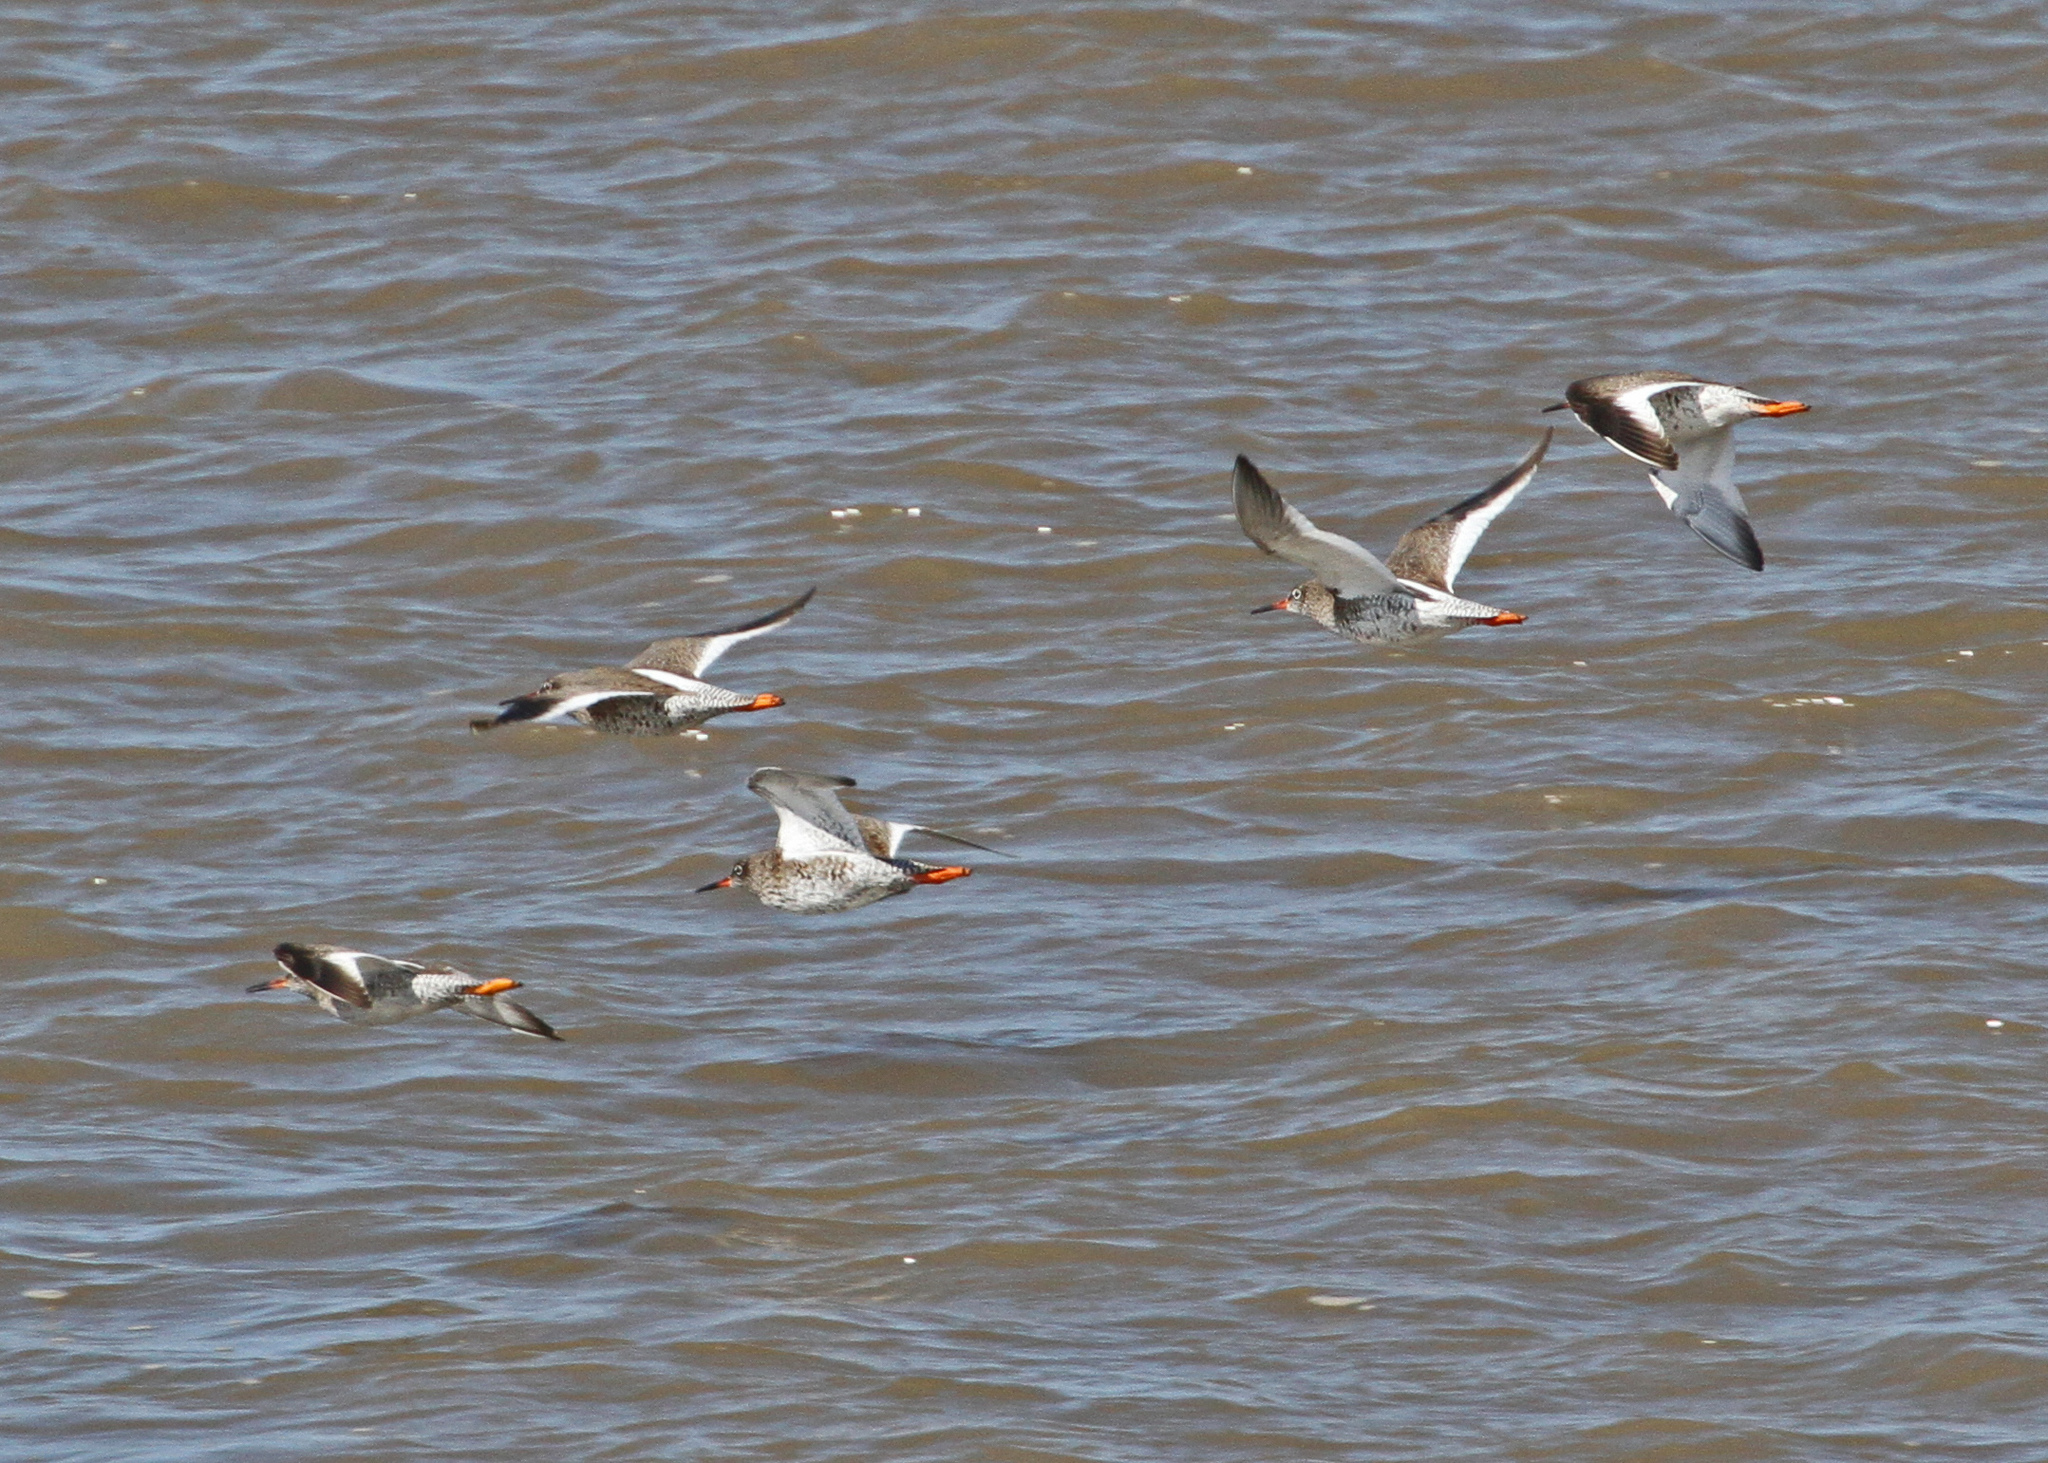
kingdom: Animalia
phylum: Chordata
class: Aves
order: Charadriiformes
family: Scolopacidae
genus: Tringa
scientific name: Tringa totanus
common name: Common redshank
